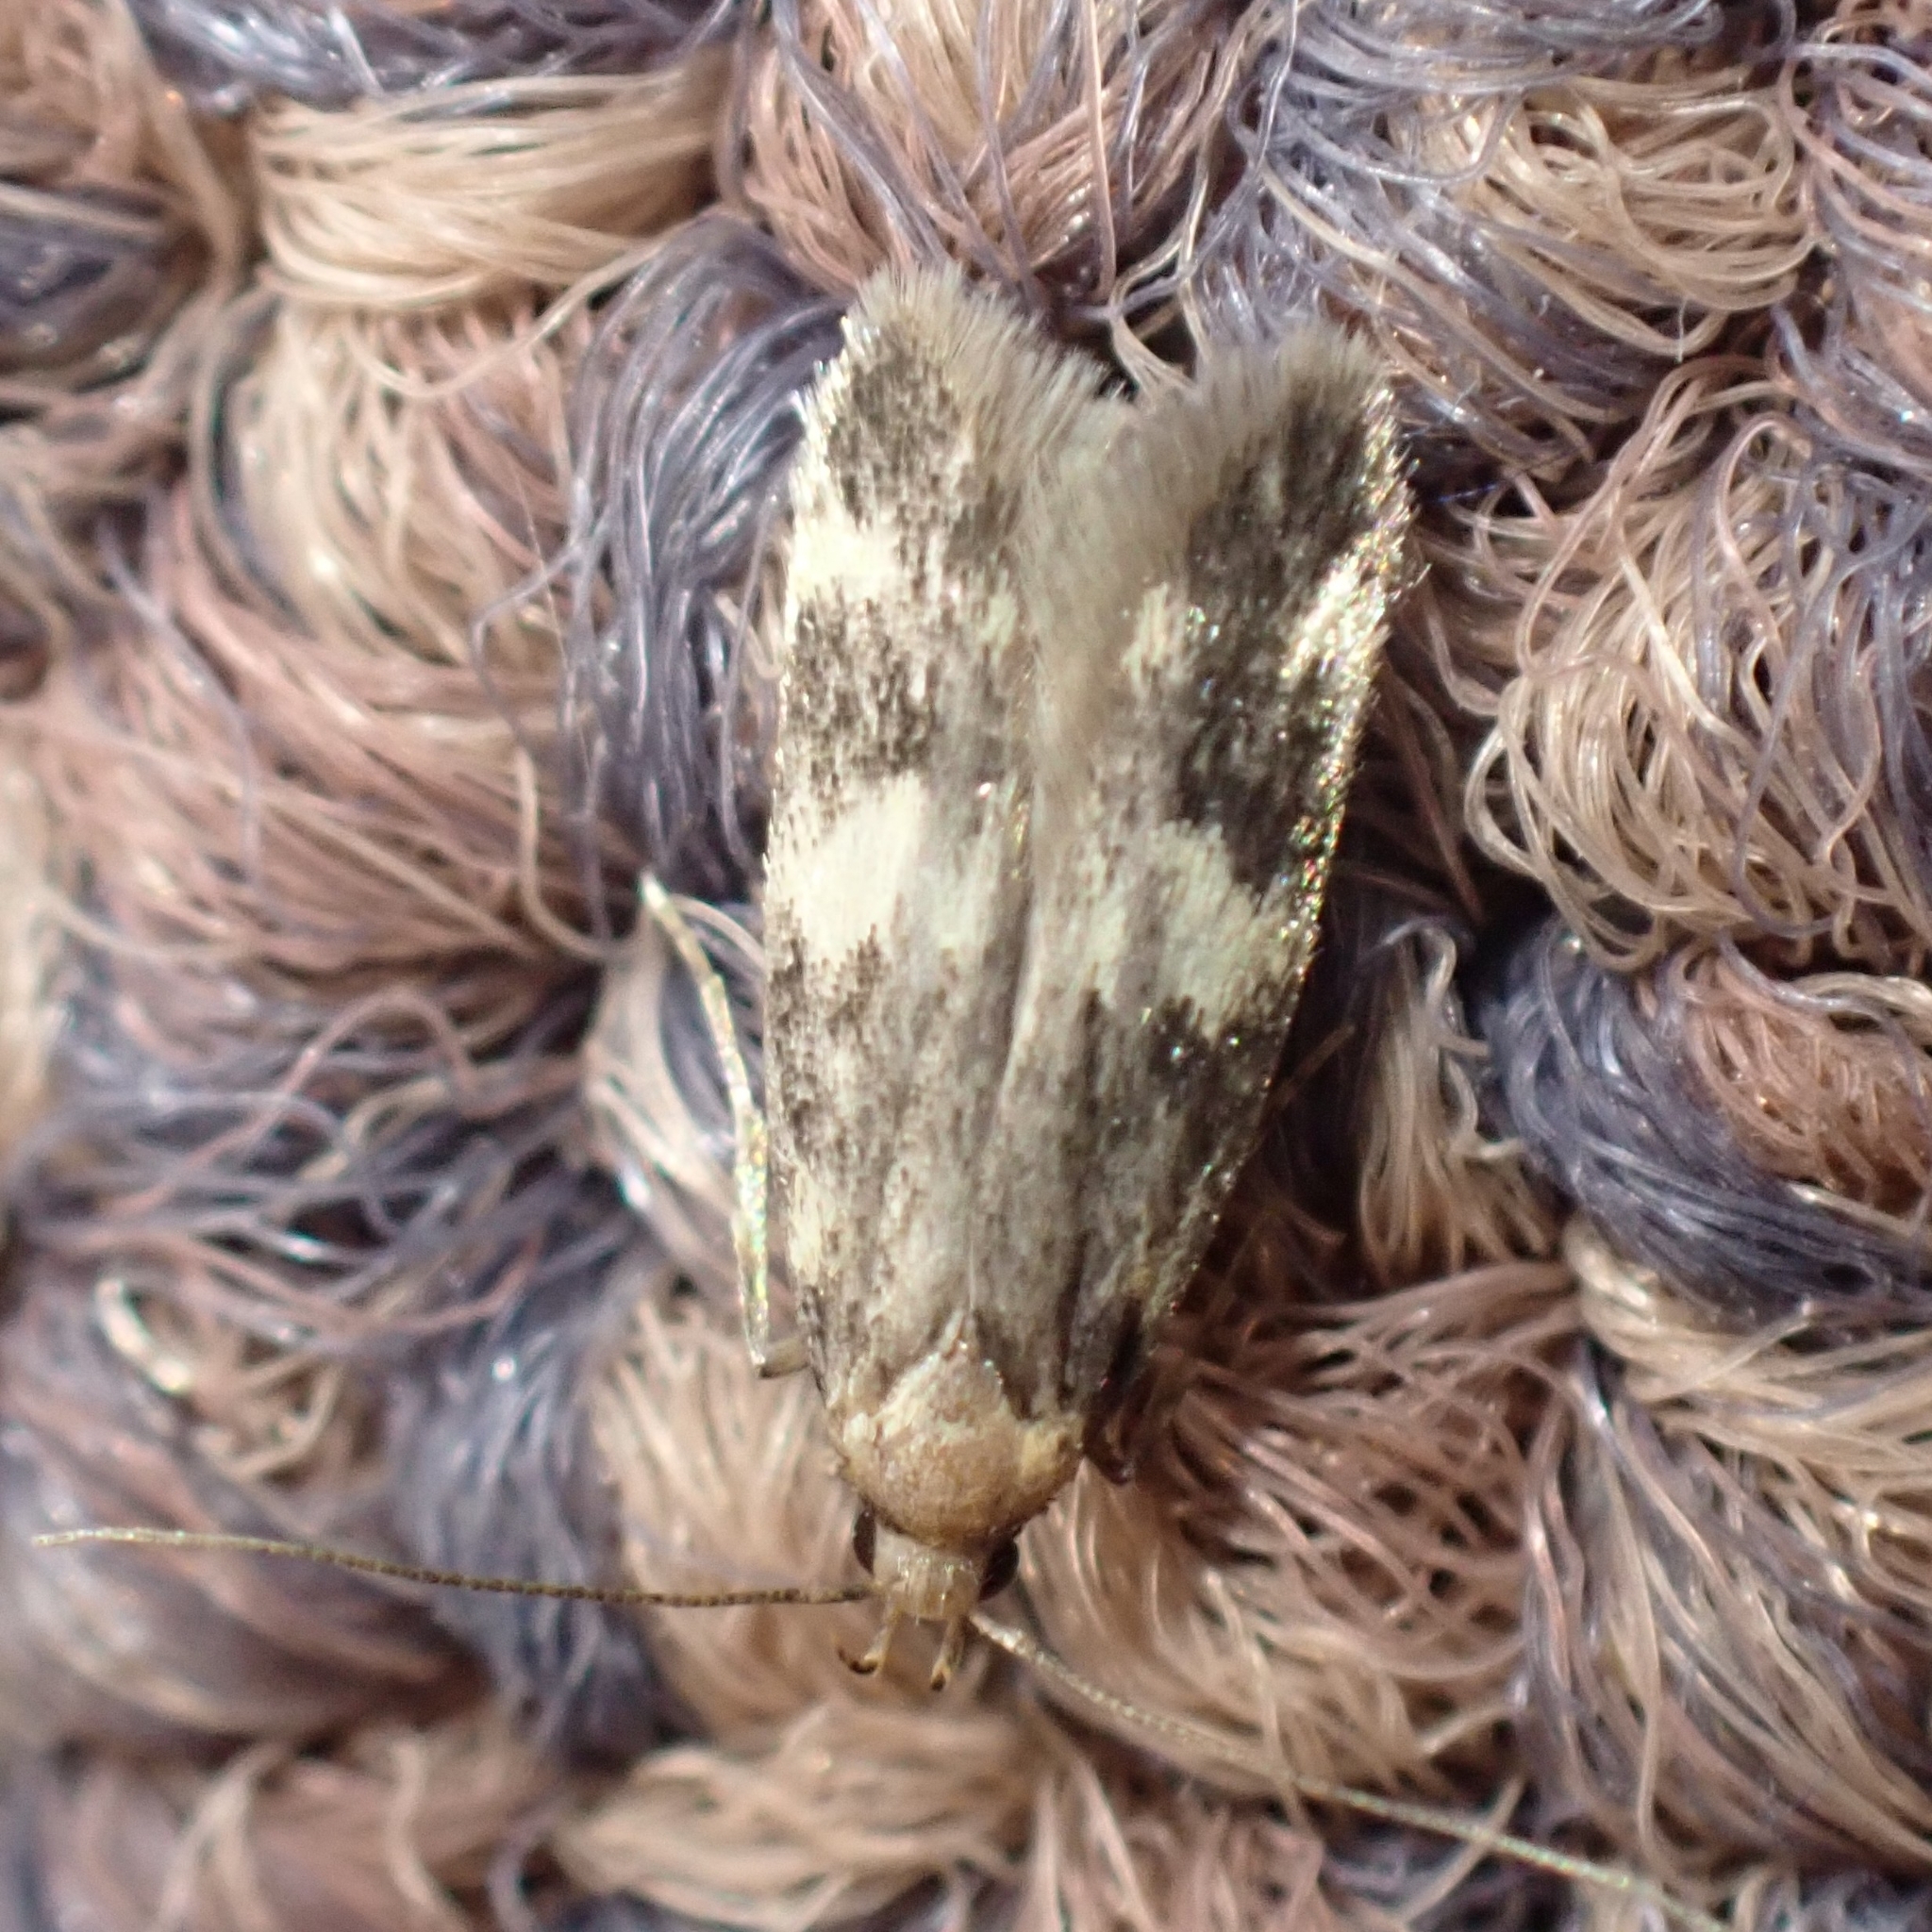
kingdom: Animalia
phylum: Arthropoda
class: Insecta
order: Lepidoptera
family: Autostichidae
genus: Oegoconia
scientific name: Oegoconia
